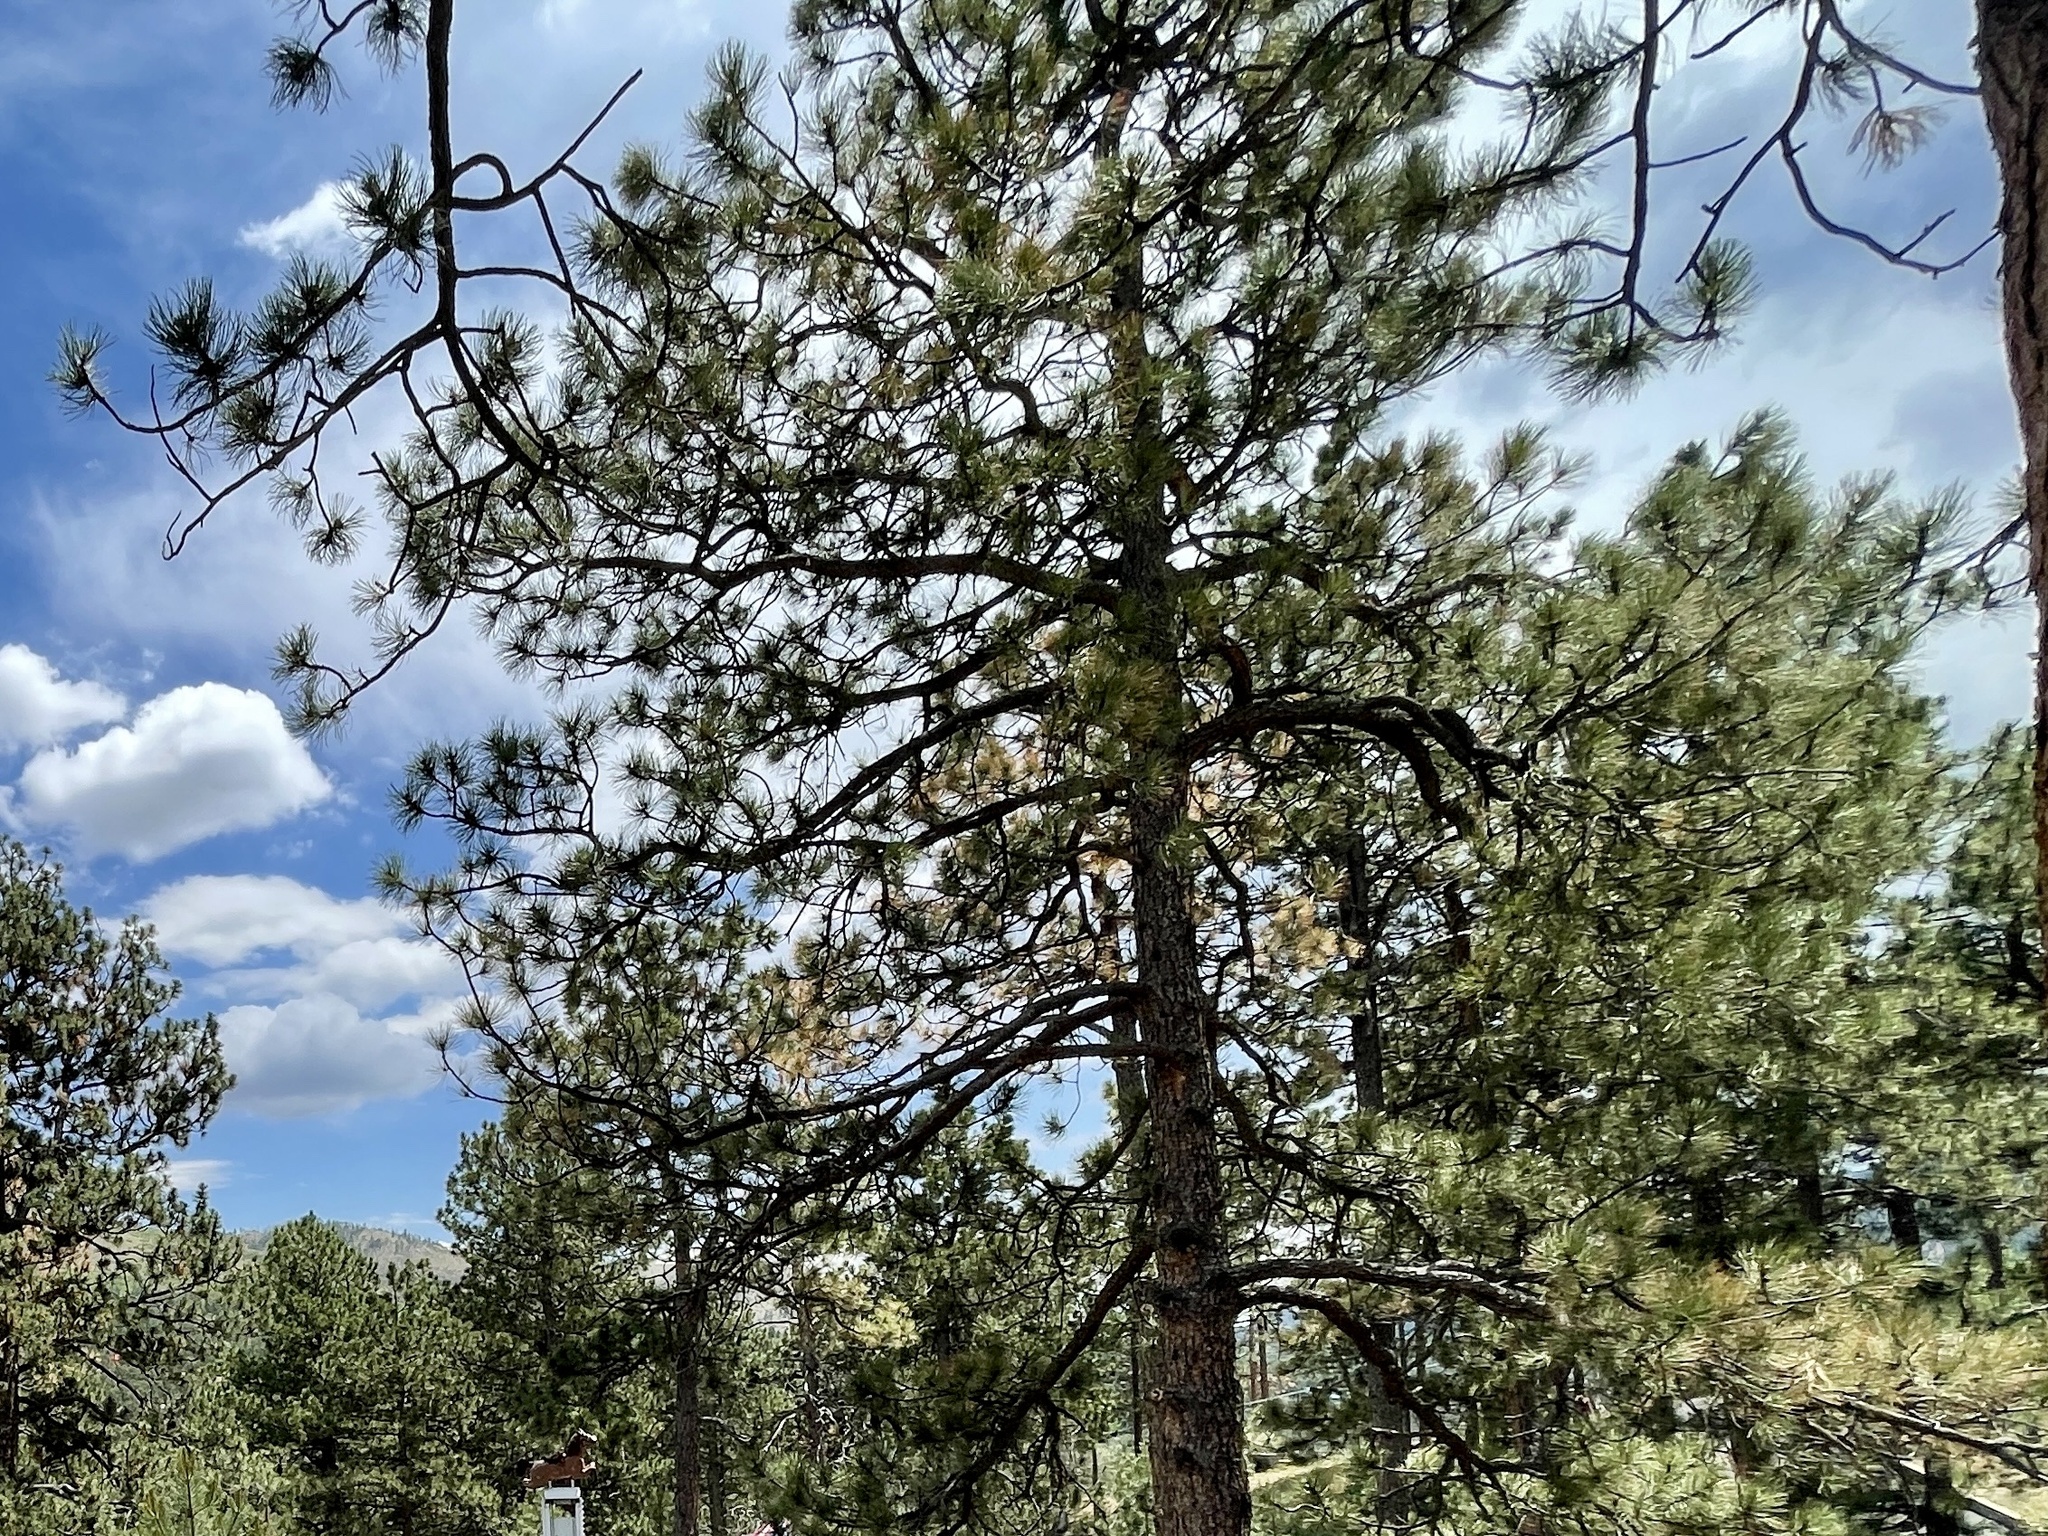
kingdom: Plantae
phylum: Tracheophyta
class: Pinopsida
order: Pinales
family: Pinaceae
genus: Pinus
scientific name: Pinus ponderosa
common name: Western yellow-pine
